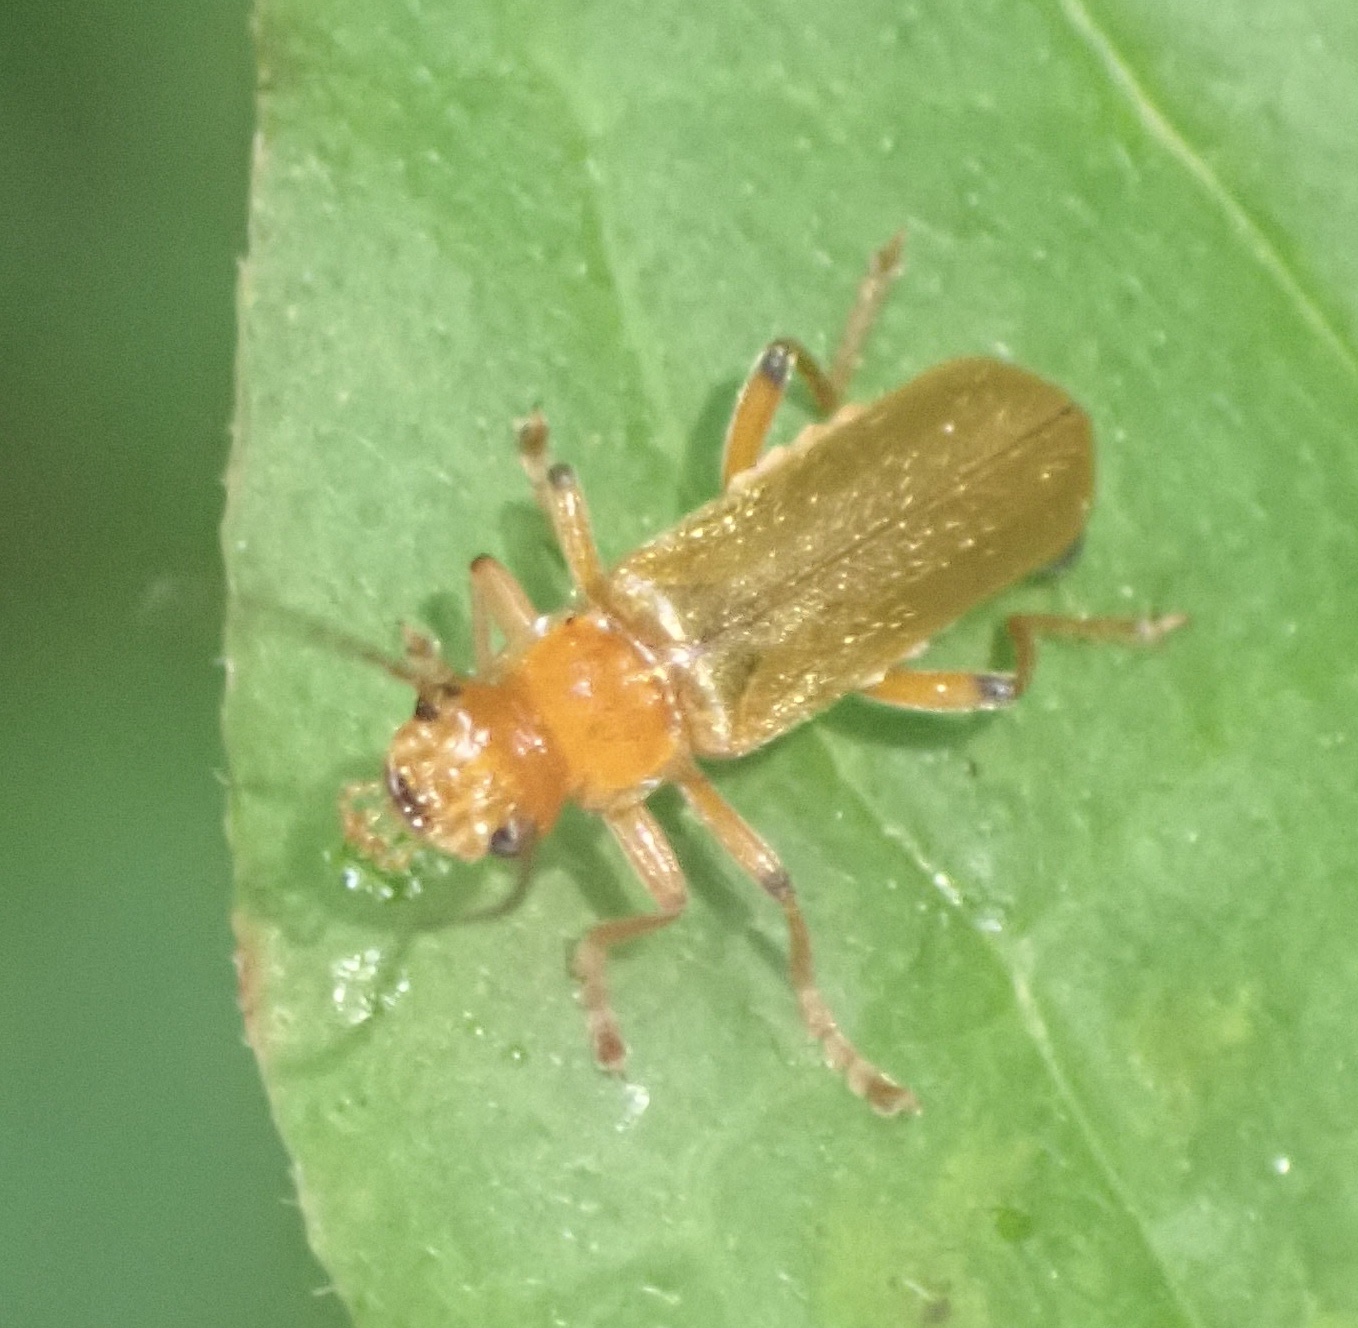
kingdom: Animalia
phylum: Arthropoda
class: Insecta
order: Coleoptera
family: Cantharidae
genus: Cantharis
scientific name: Cantharis cryptica
